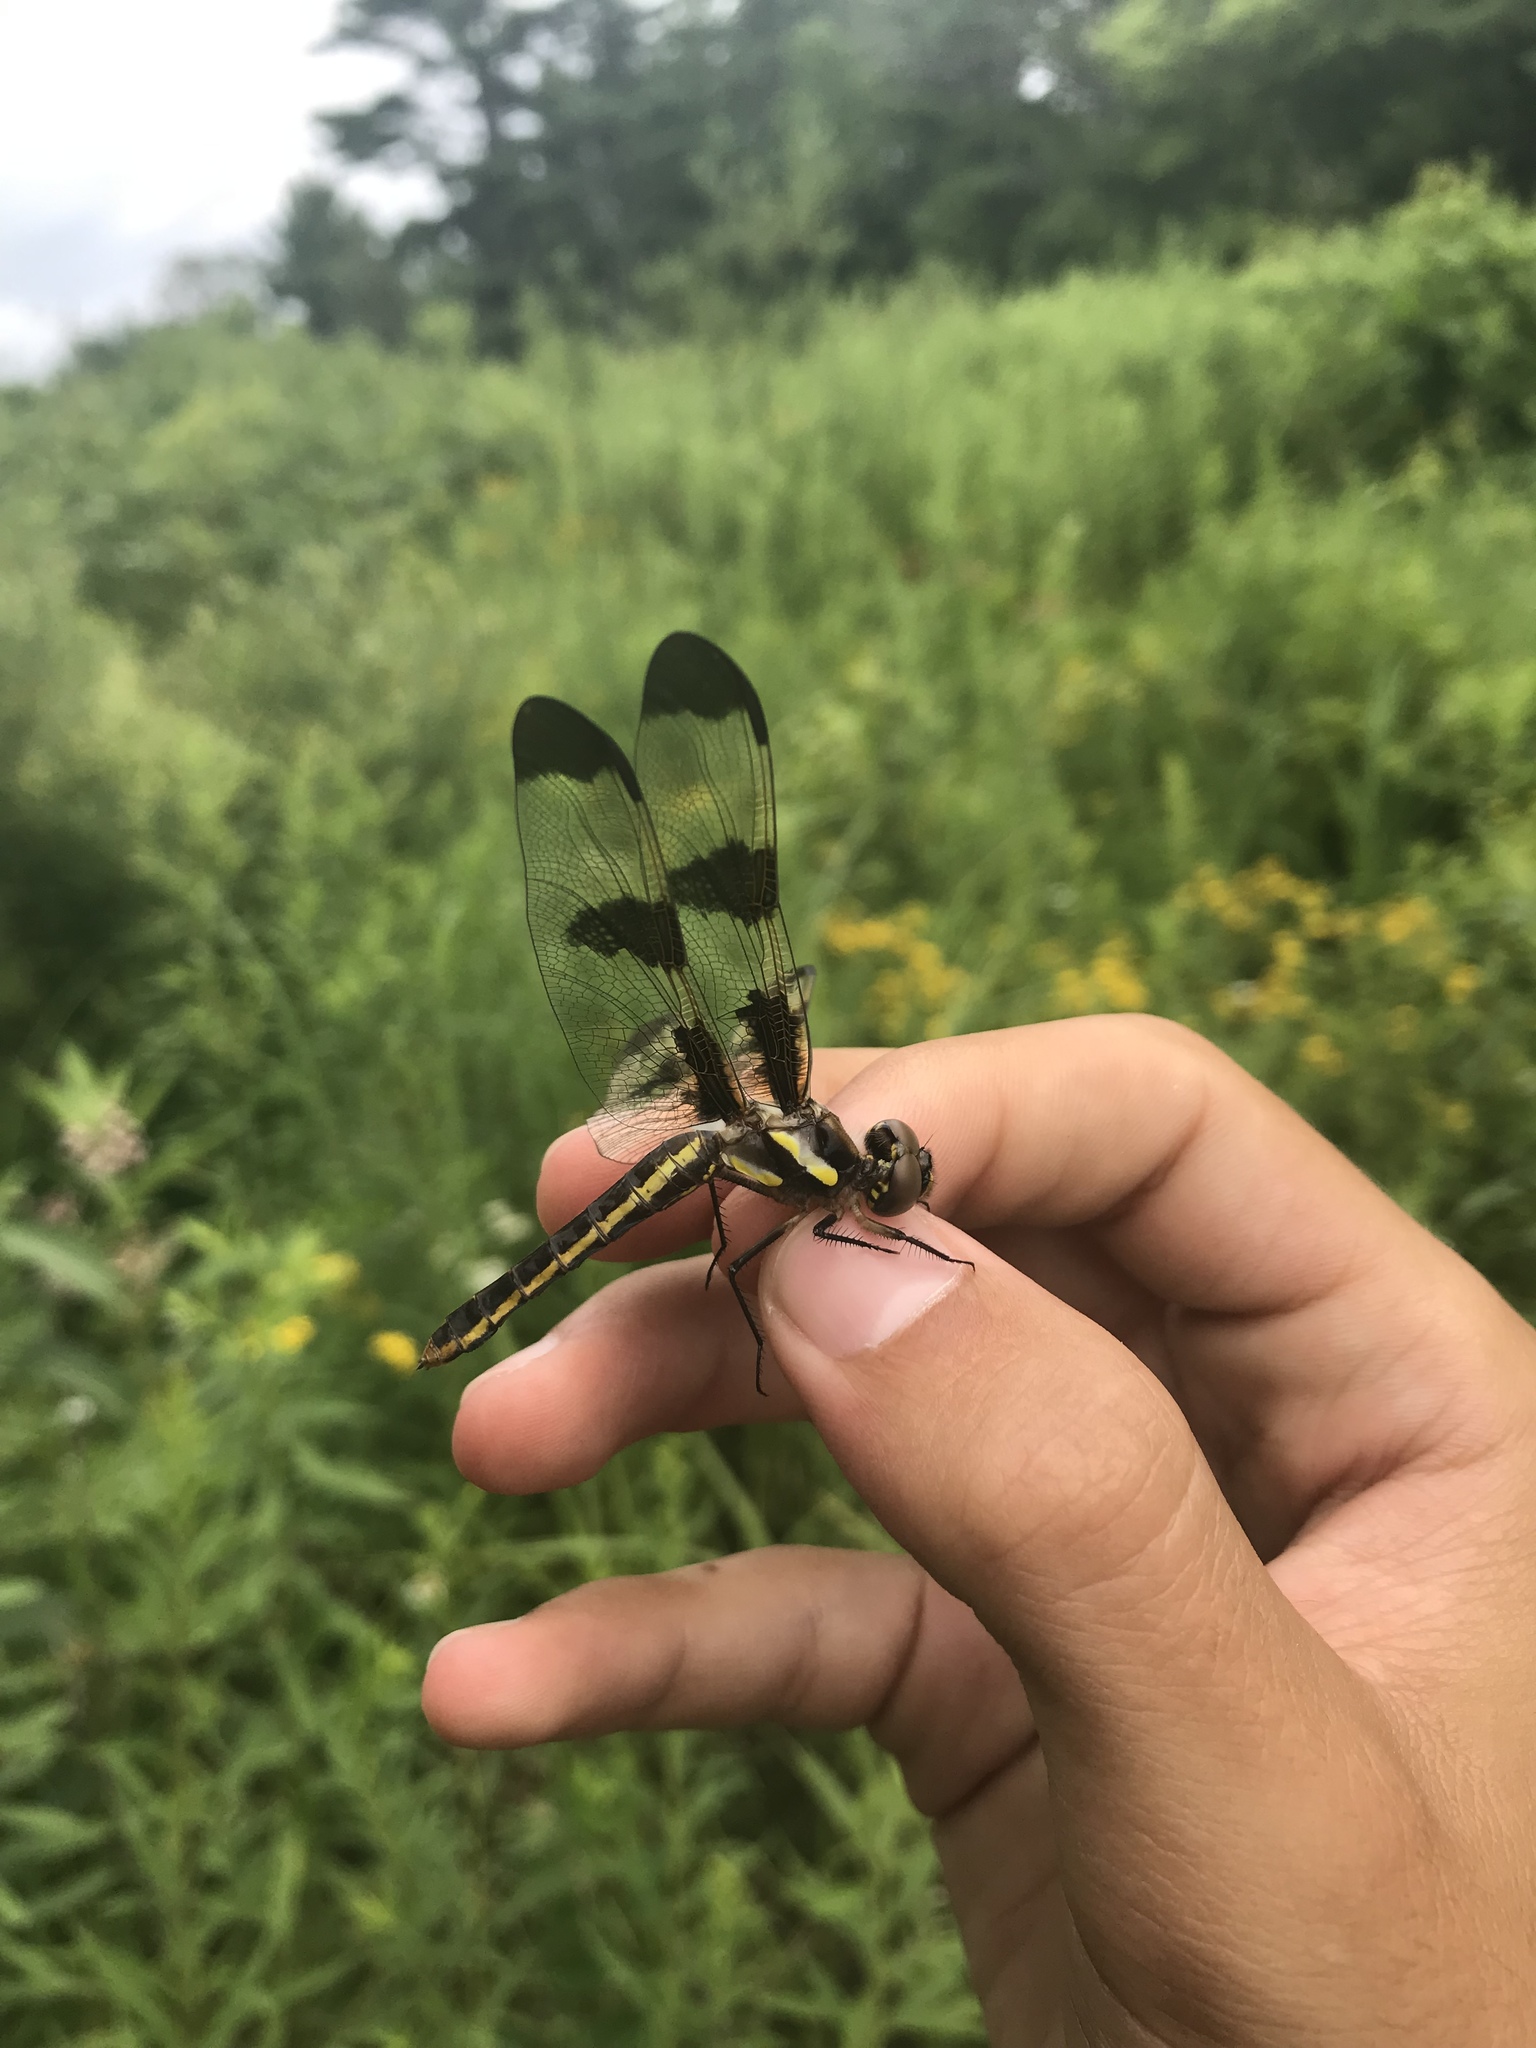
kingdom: Animalia
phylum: Arthropoda
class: Insecta
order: Odonata
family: Libellulidae
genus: Libellula
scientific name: Libellula pulchella
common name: Twelve-spotted skimmer
